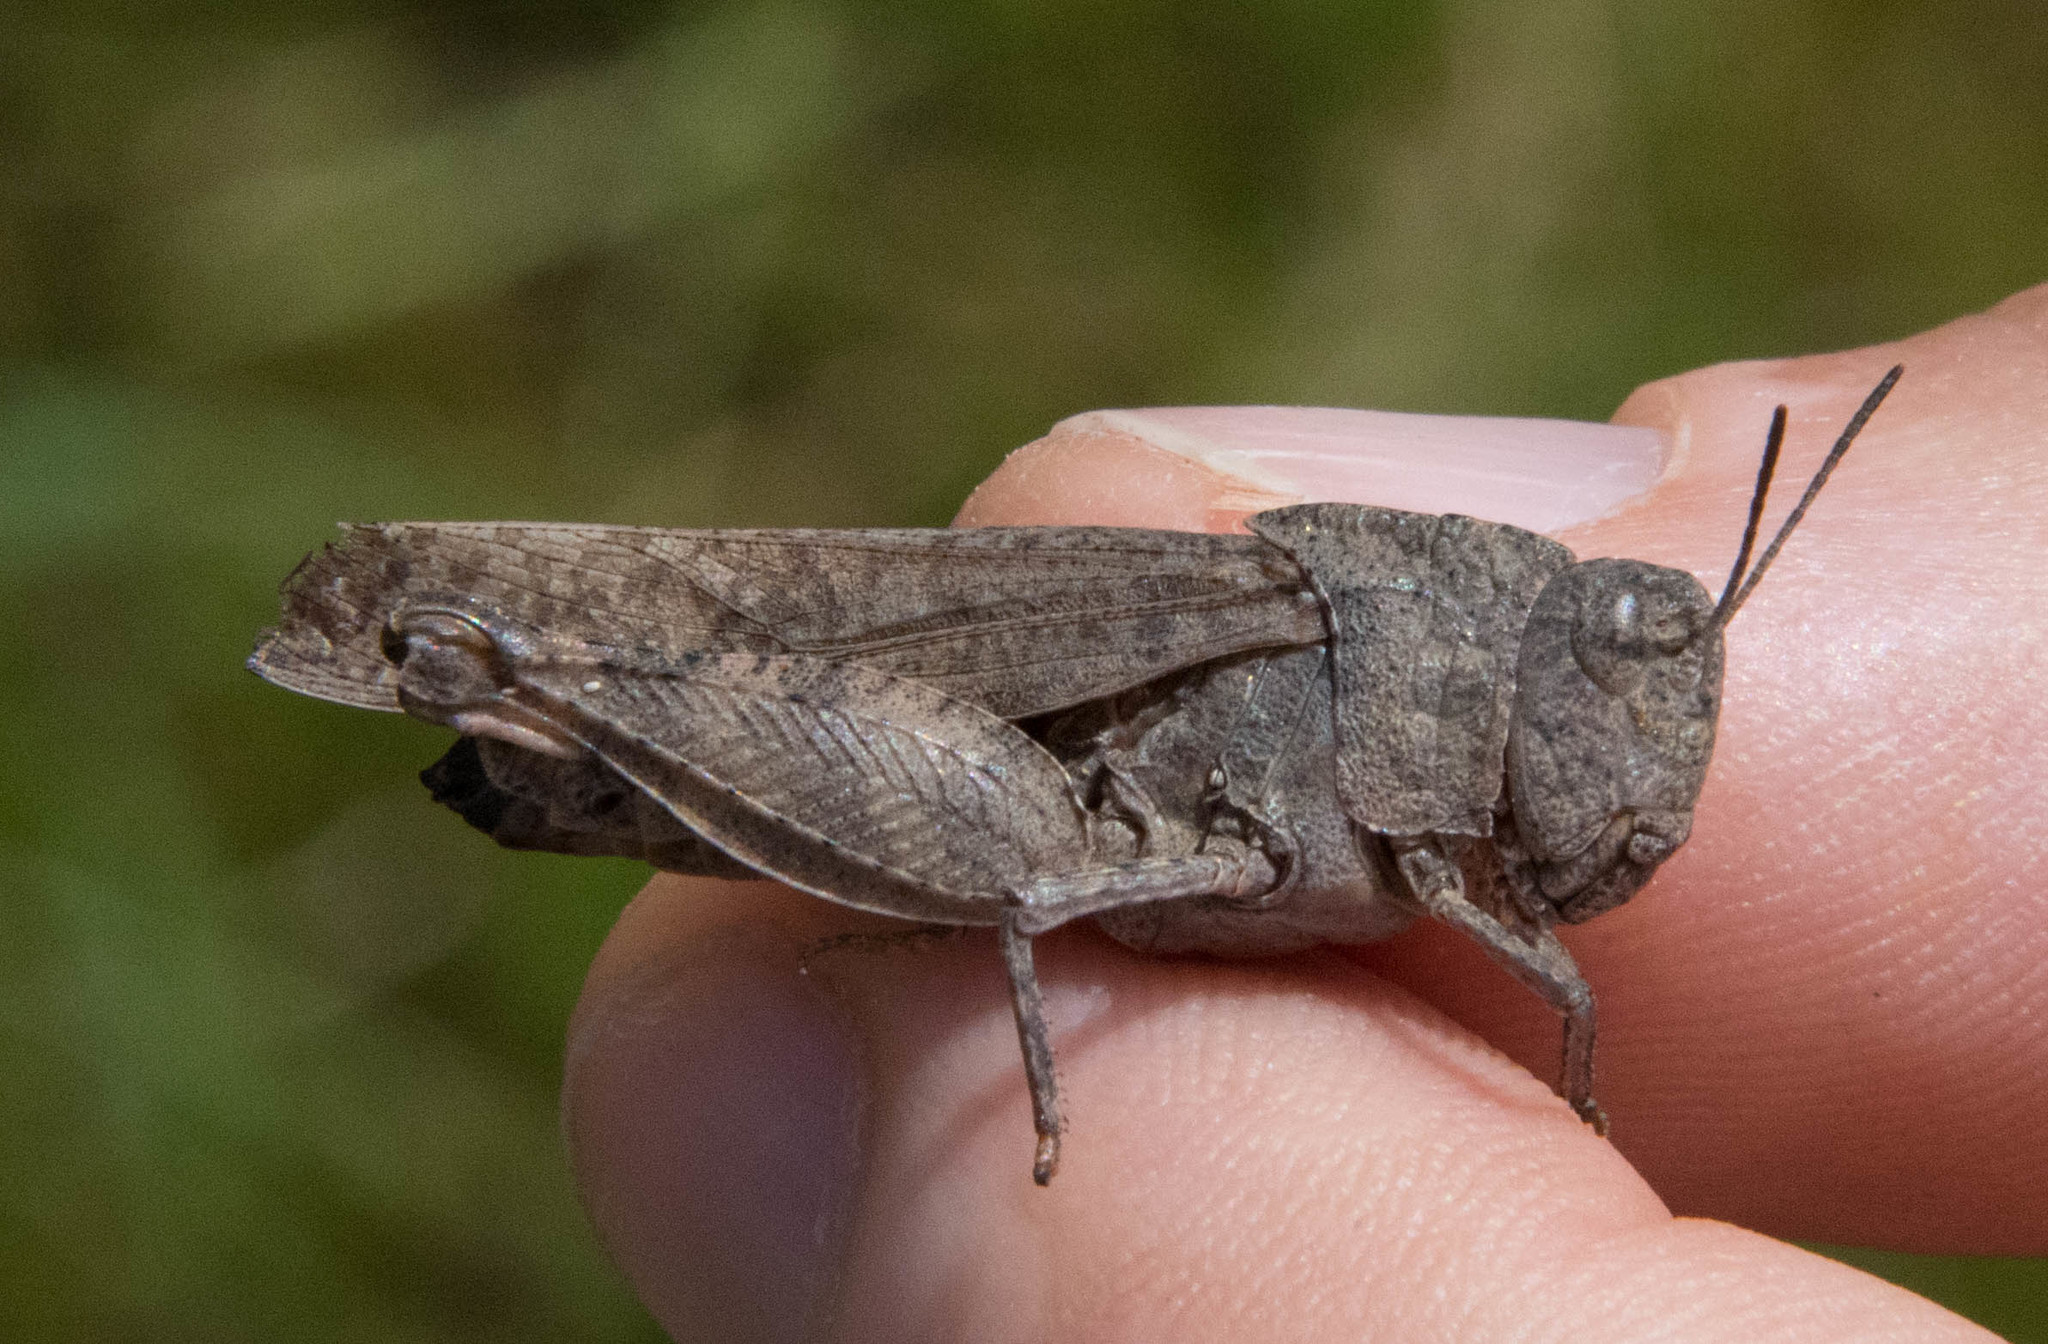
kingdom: Animalia
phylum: Arthropoda
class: Insecta
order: Orthoptera
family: Acrididae
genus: Arphia
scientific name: Arphia behrensi
